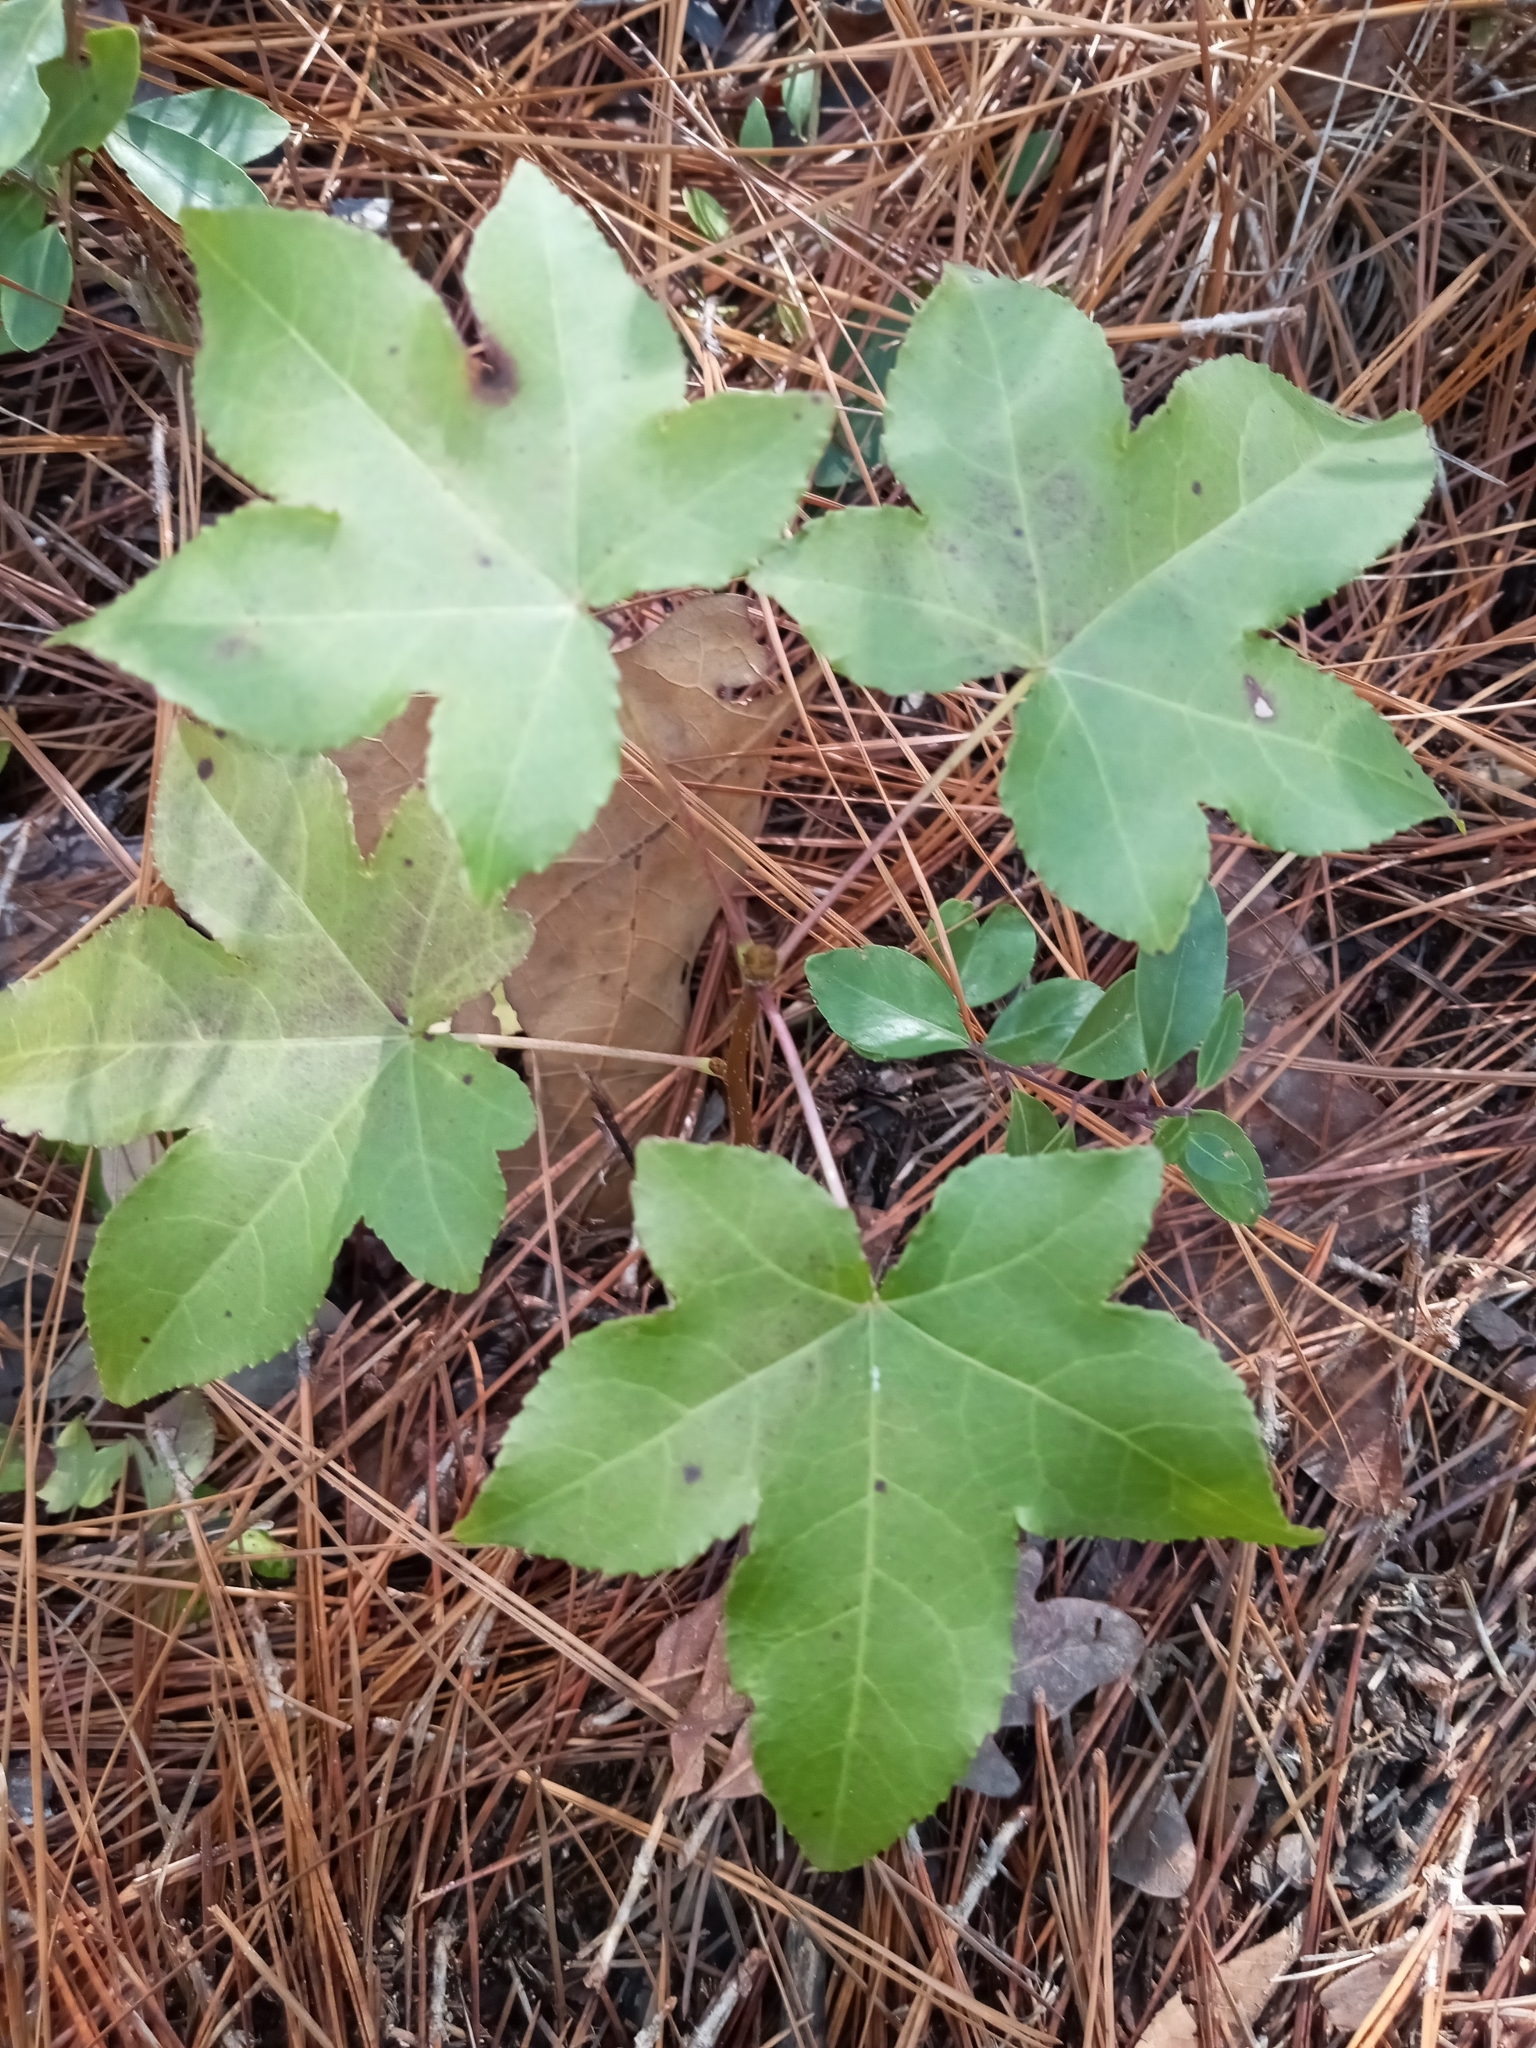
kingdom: Plantae
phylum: Tracheophyta
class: Magnoliopsida
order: Saxifragales
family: Altingiaceae
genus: Liquidambar
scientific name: Liquidambar styraciflua
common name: Sweet gum
